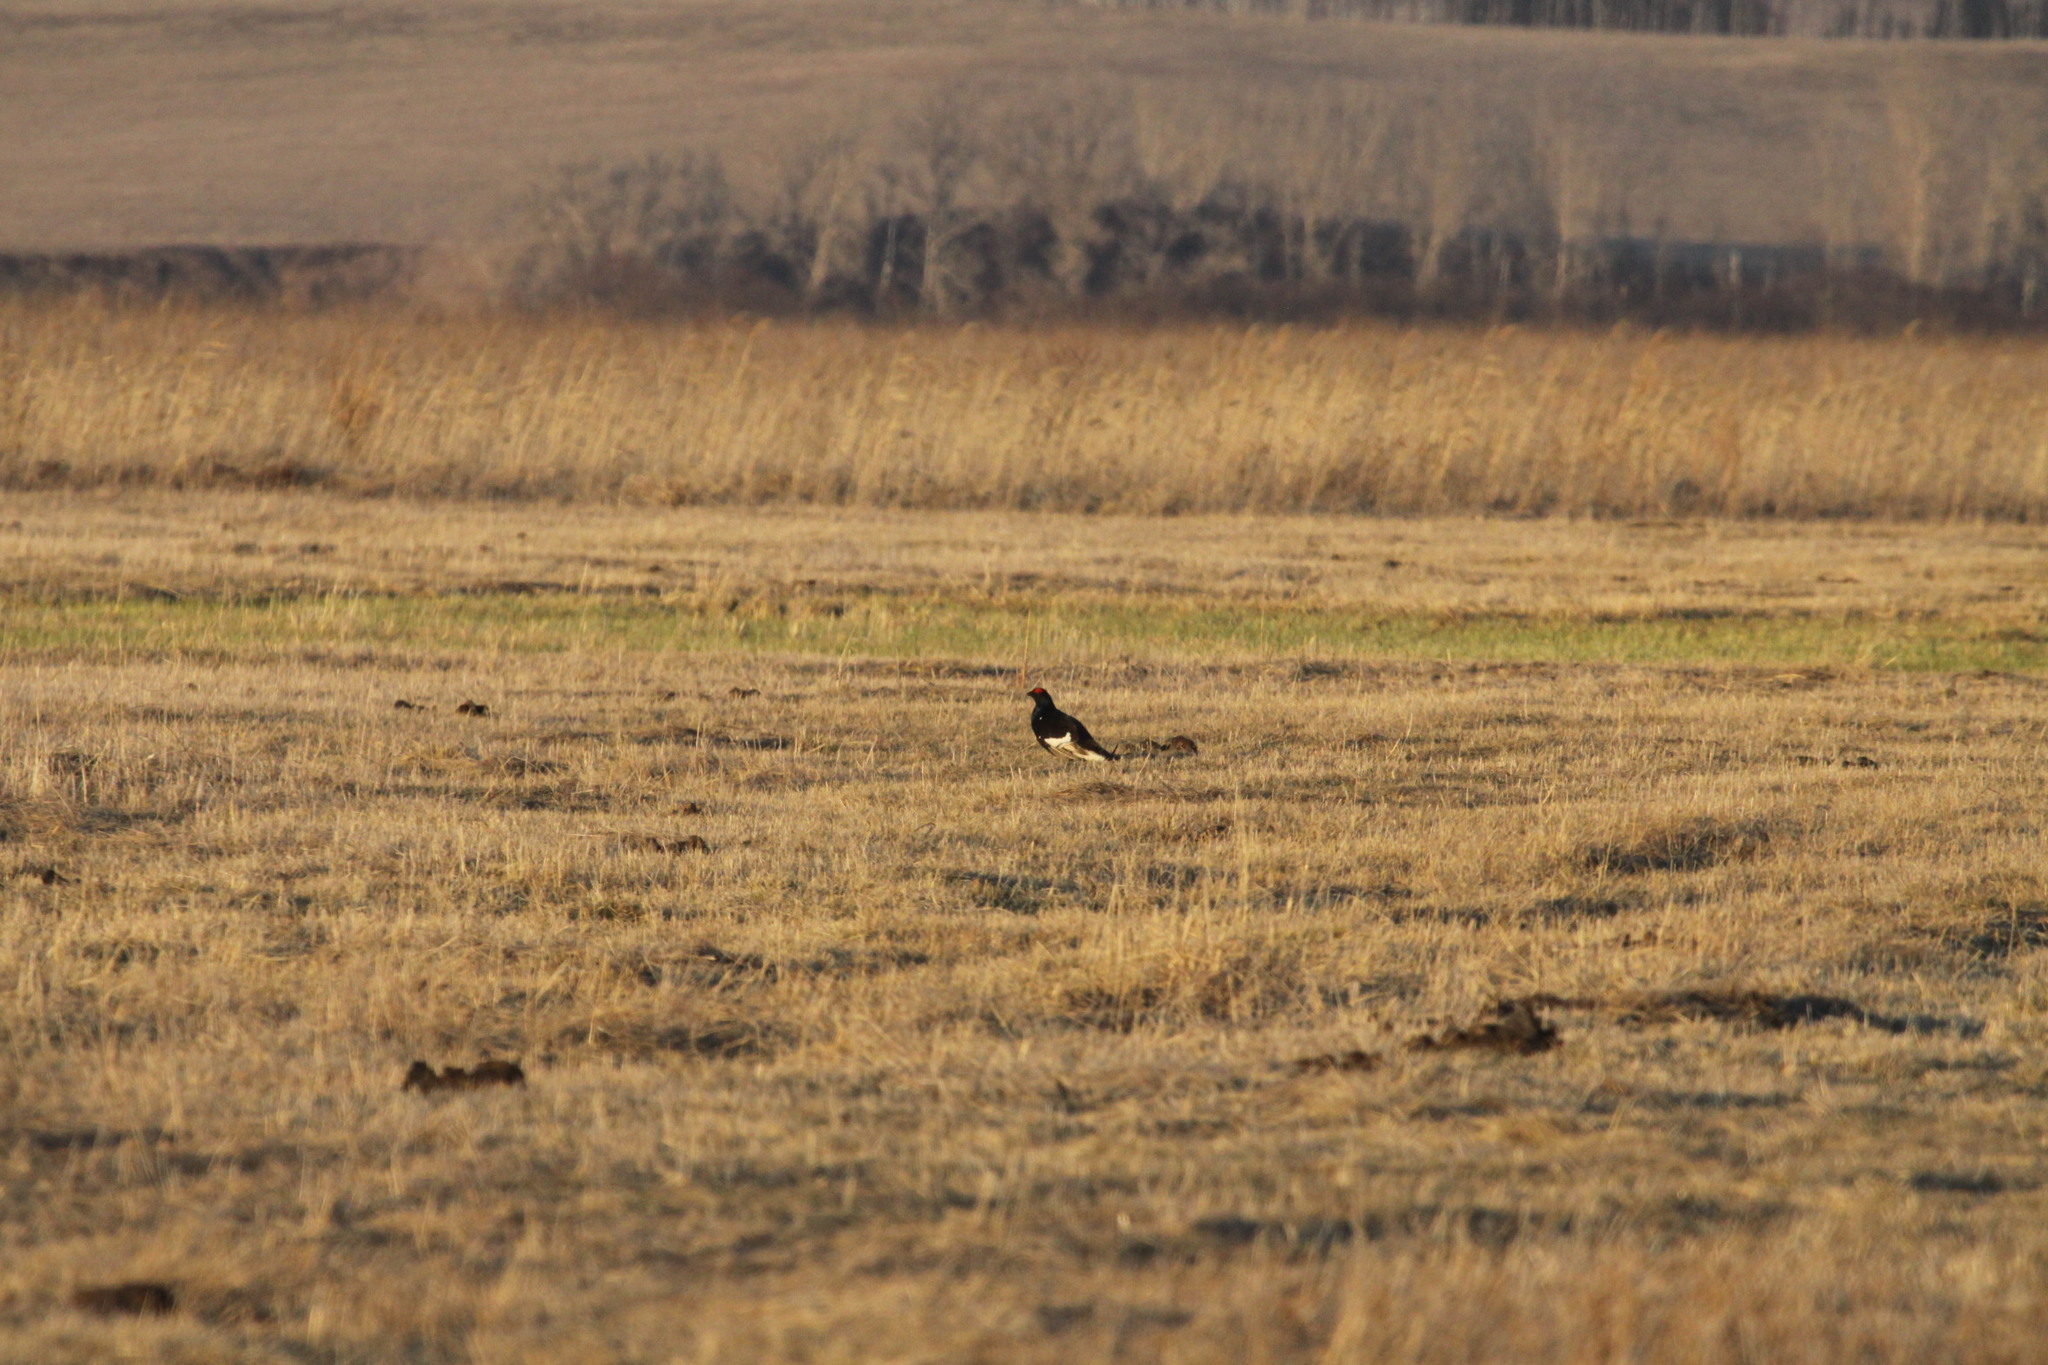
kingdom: Animalia
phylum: Chordata
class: Aves
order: Galliformes
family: Phasianidae
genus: Lyrurus
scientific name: Lyrurus tetrix
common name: Black grouse
